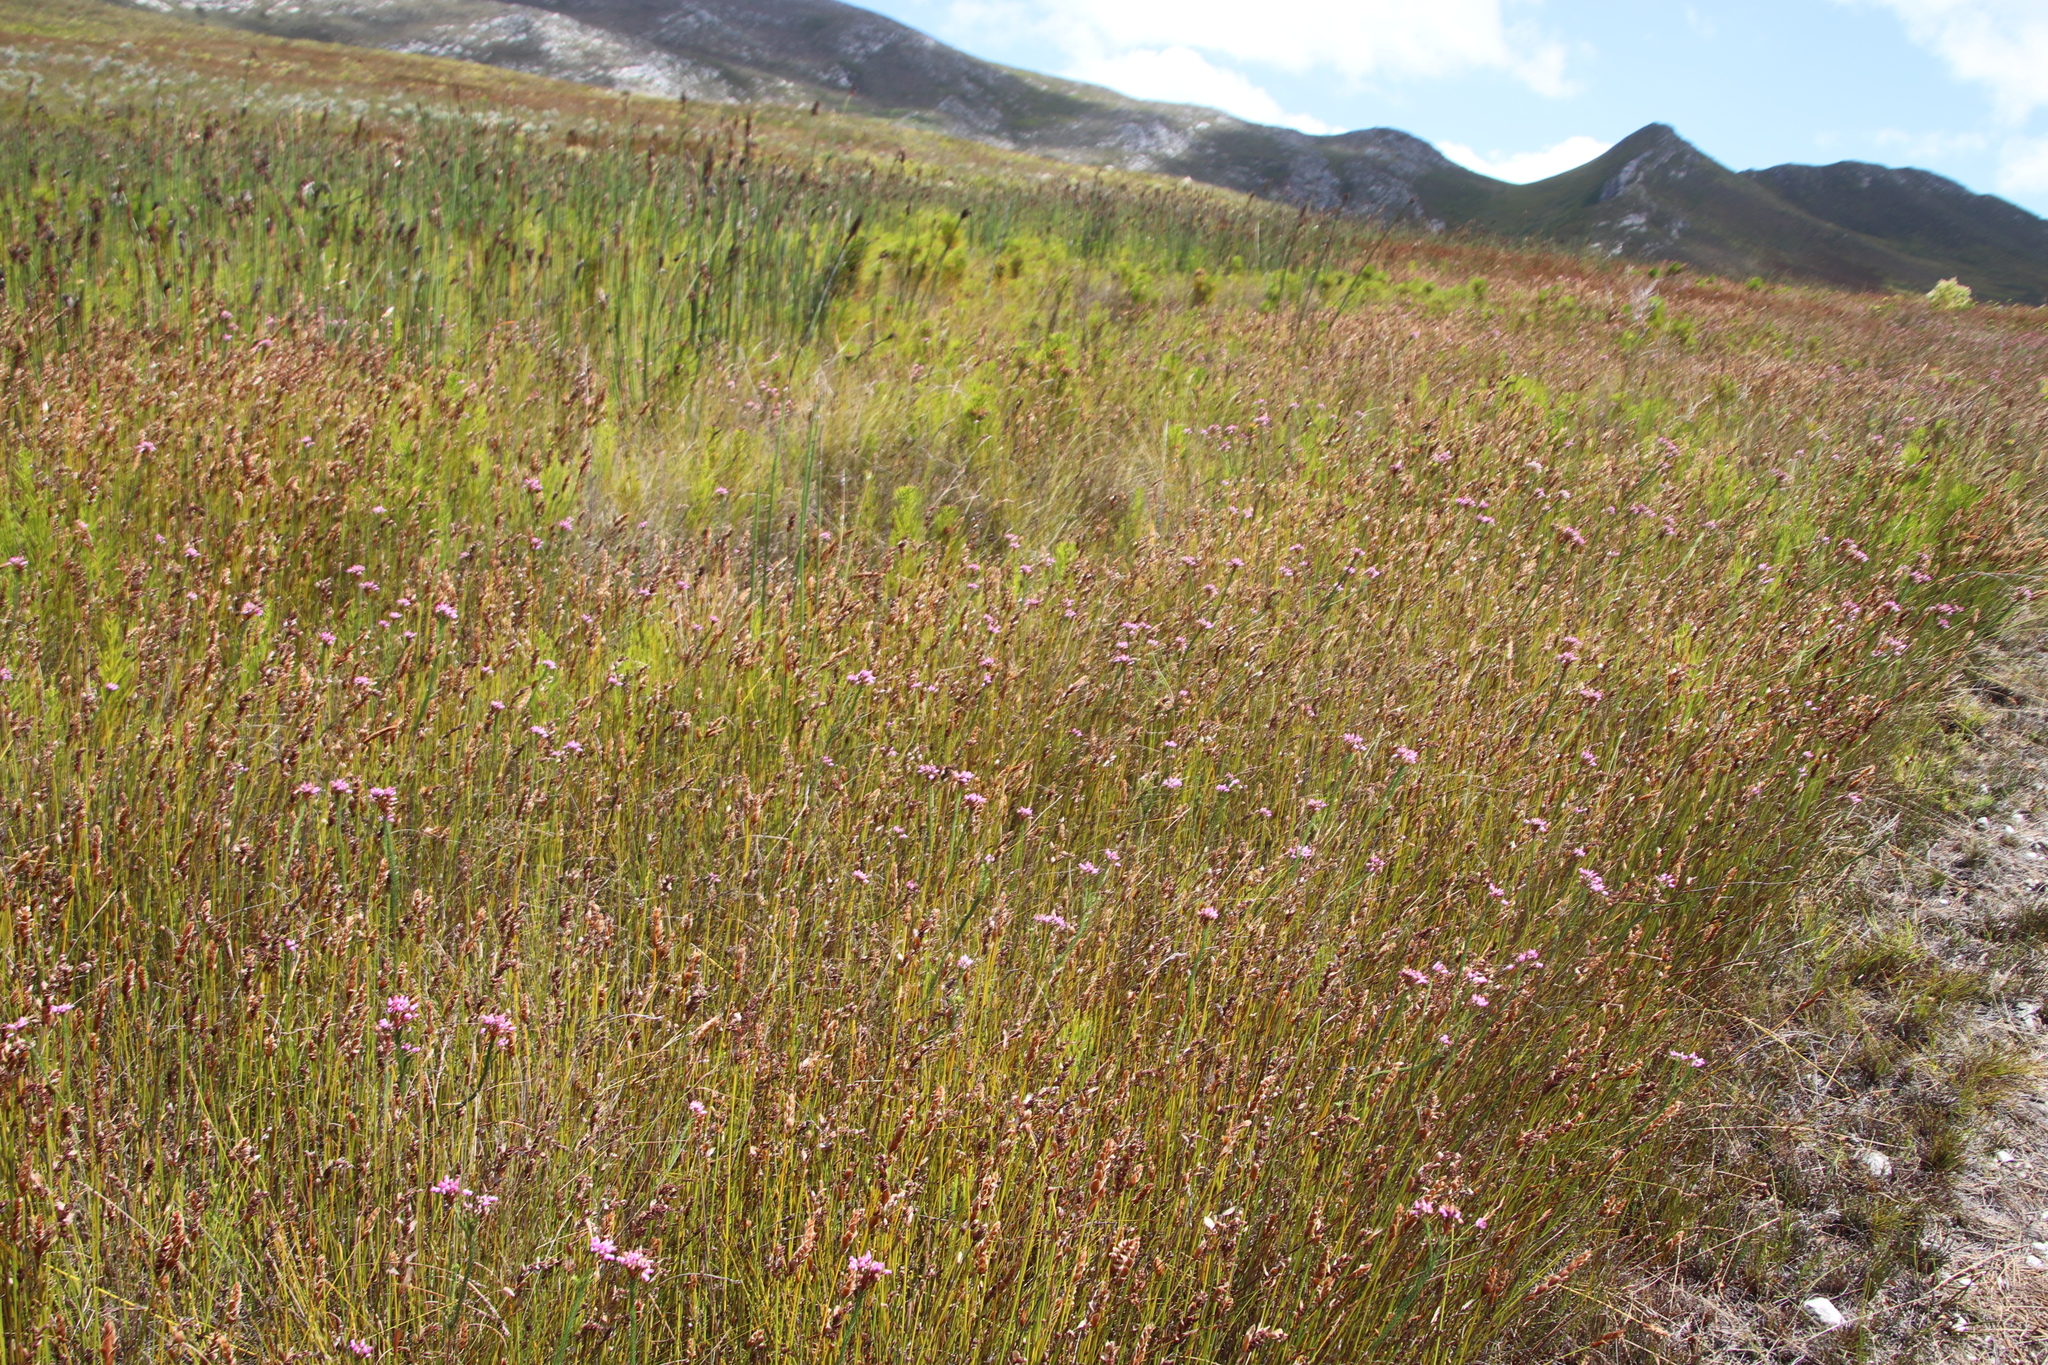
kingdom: Plantae
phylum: Tracheophyta
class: Magnoliopsida
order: Ericales
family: Ericaceae
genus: Erica
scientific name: Erica obliqua
